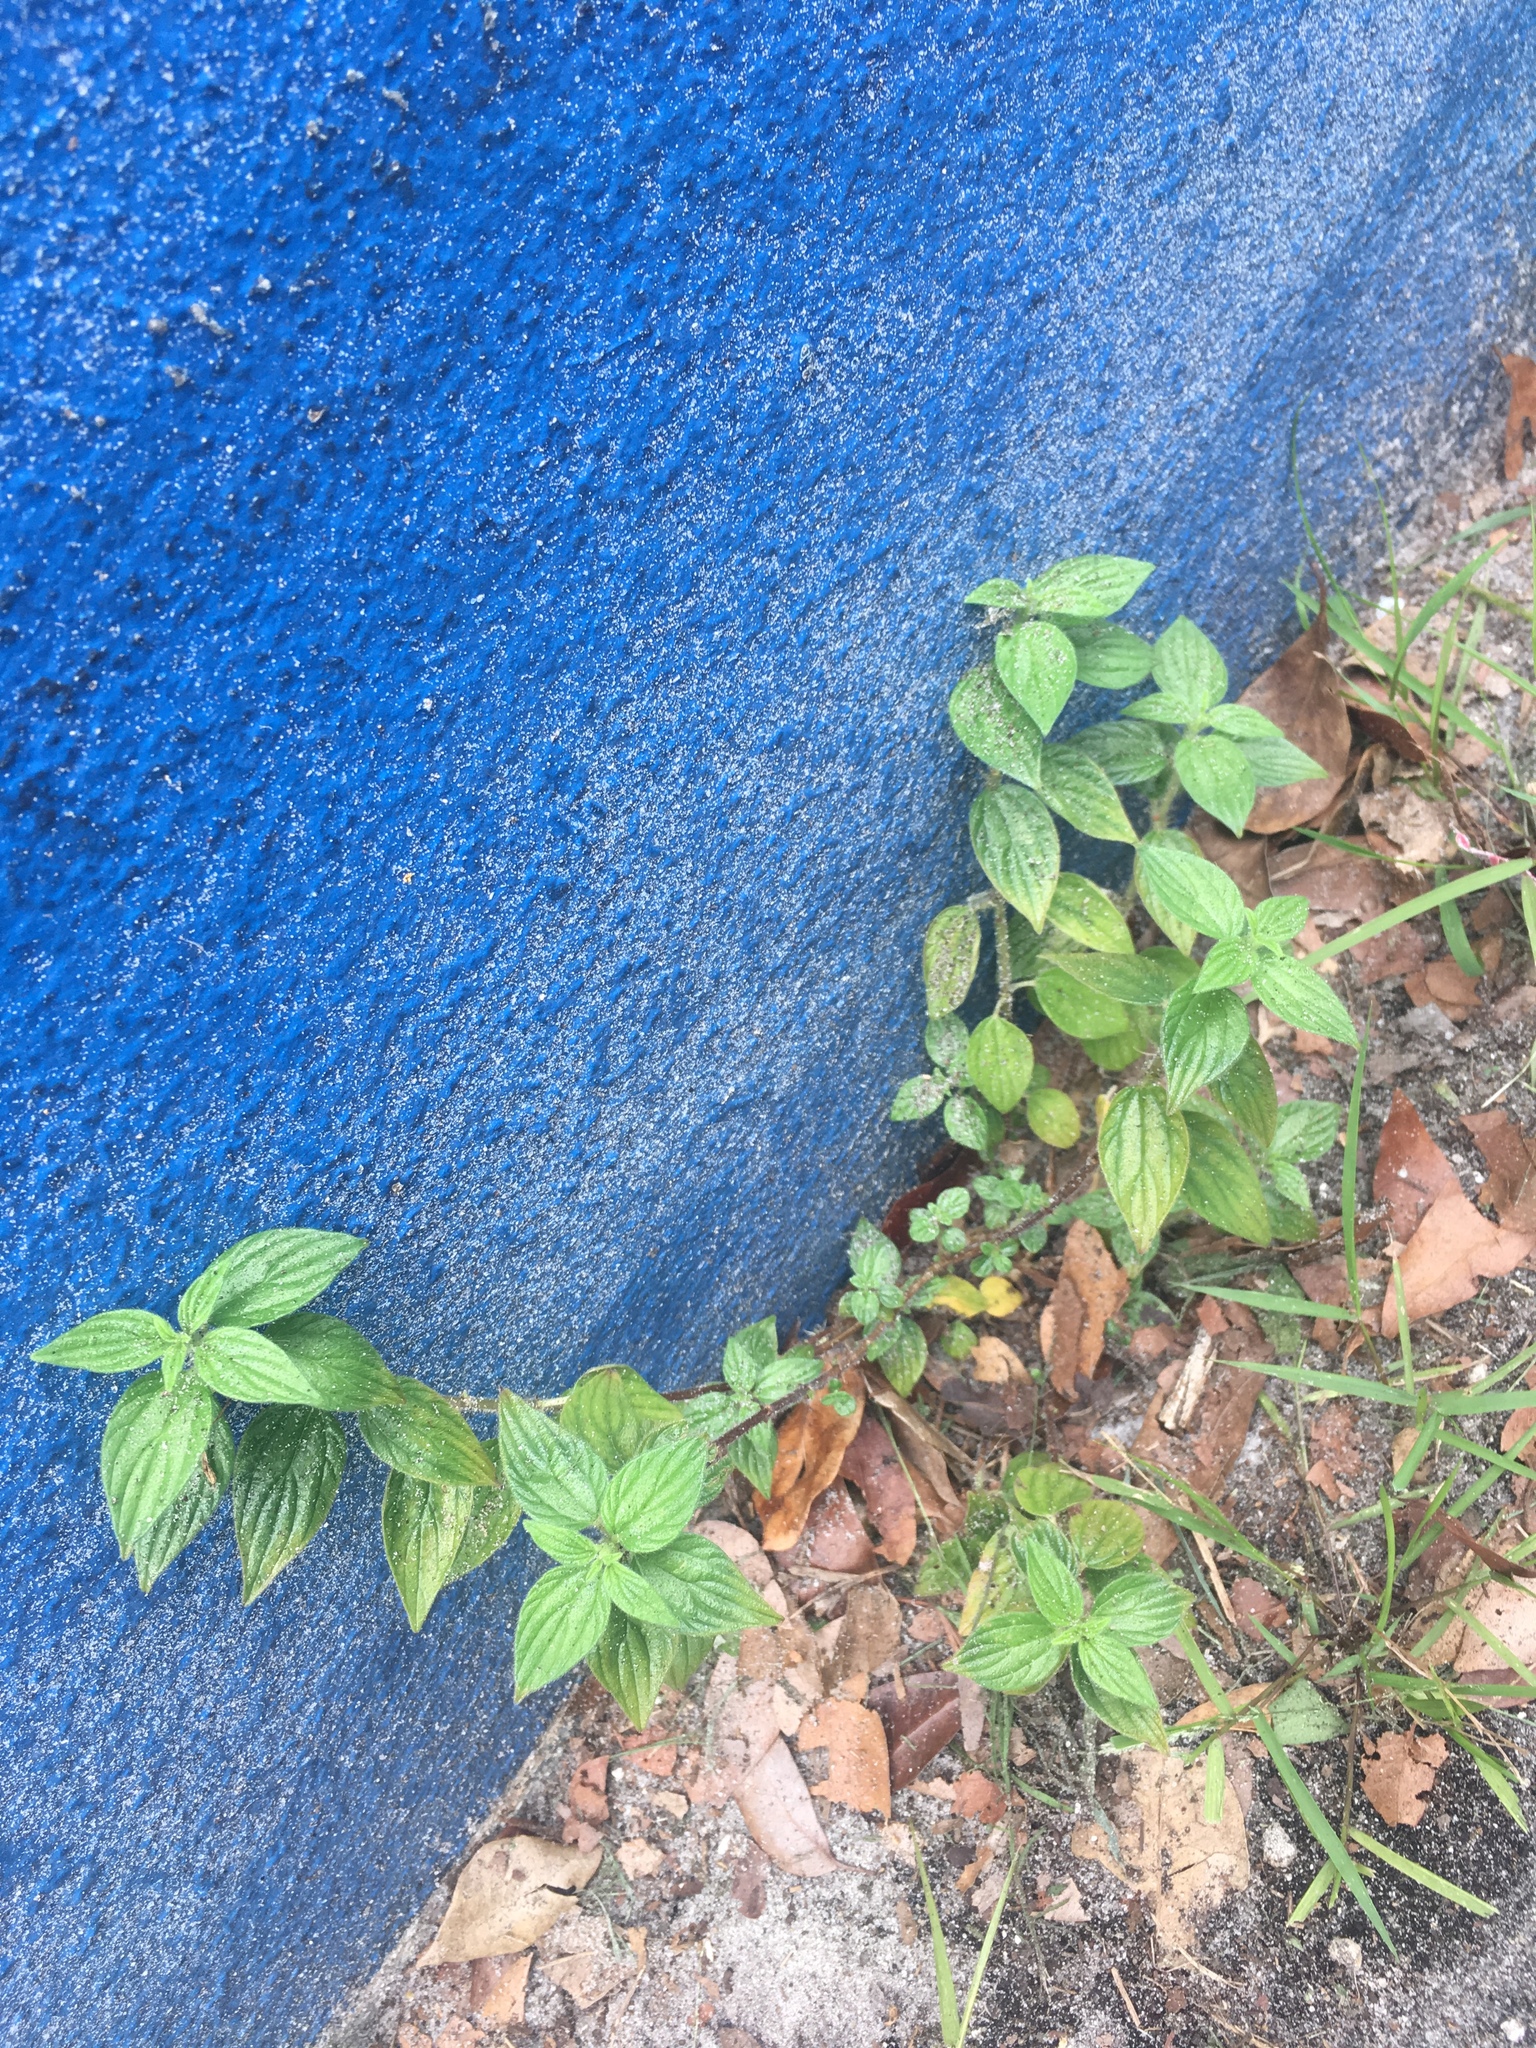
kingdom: Plantae
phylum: Tracheophyta
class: Magnoliopsida
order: Rosales
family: Urticaceae
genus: Pouzolzia
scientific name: Pouzolzia zeylanica
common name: Graceful pouzolzsbush
